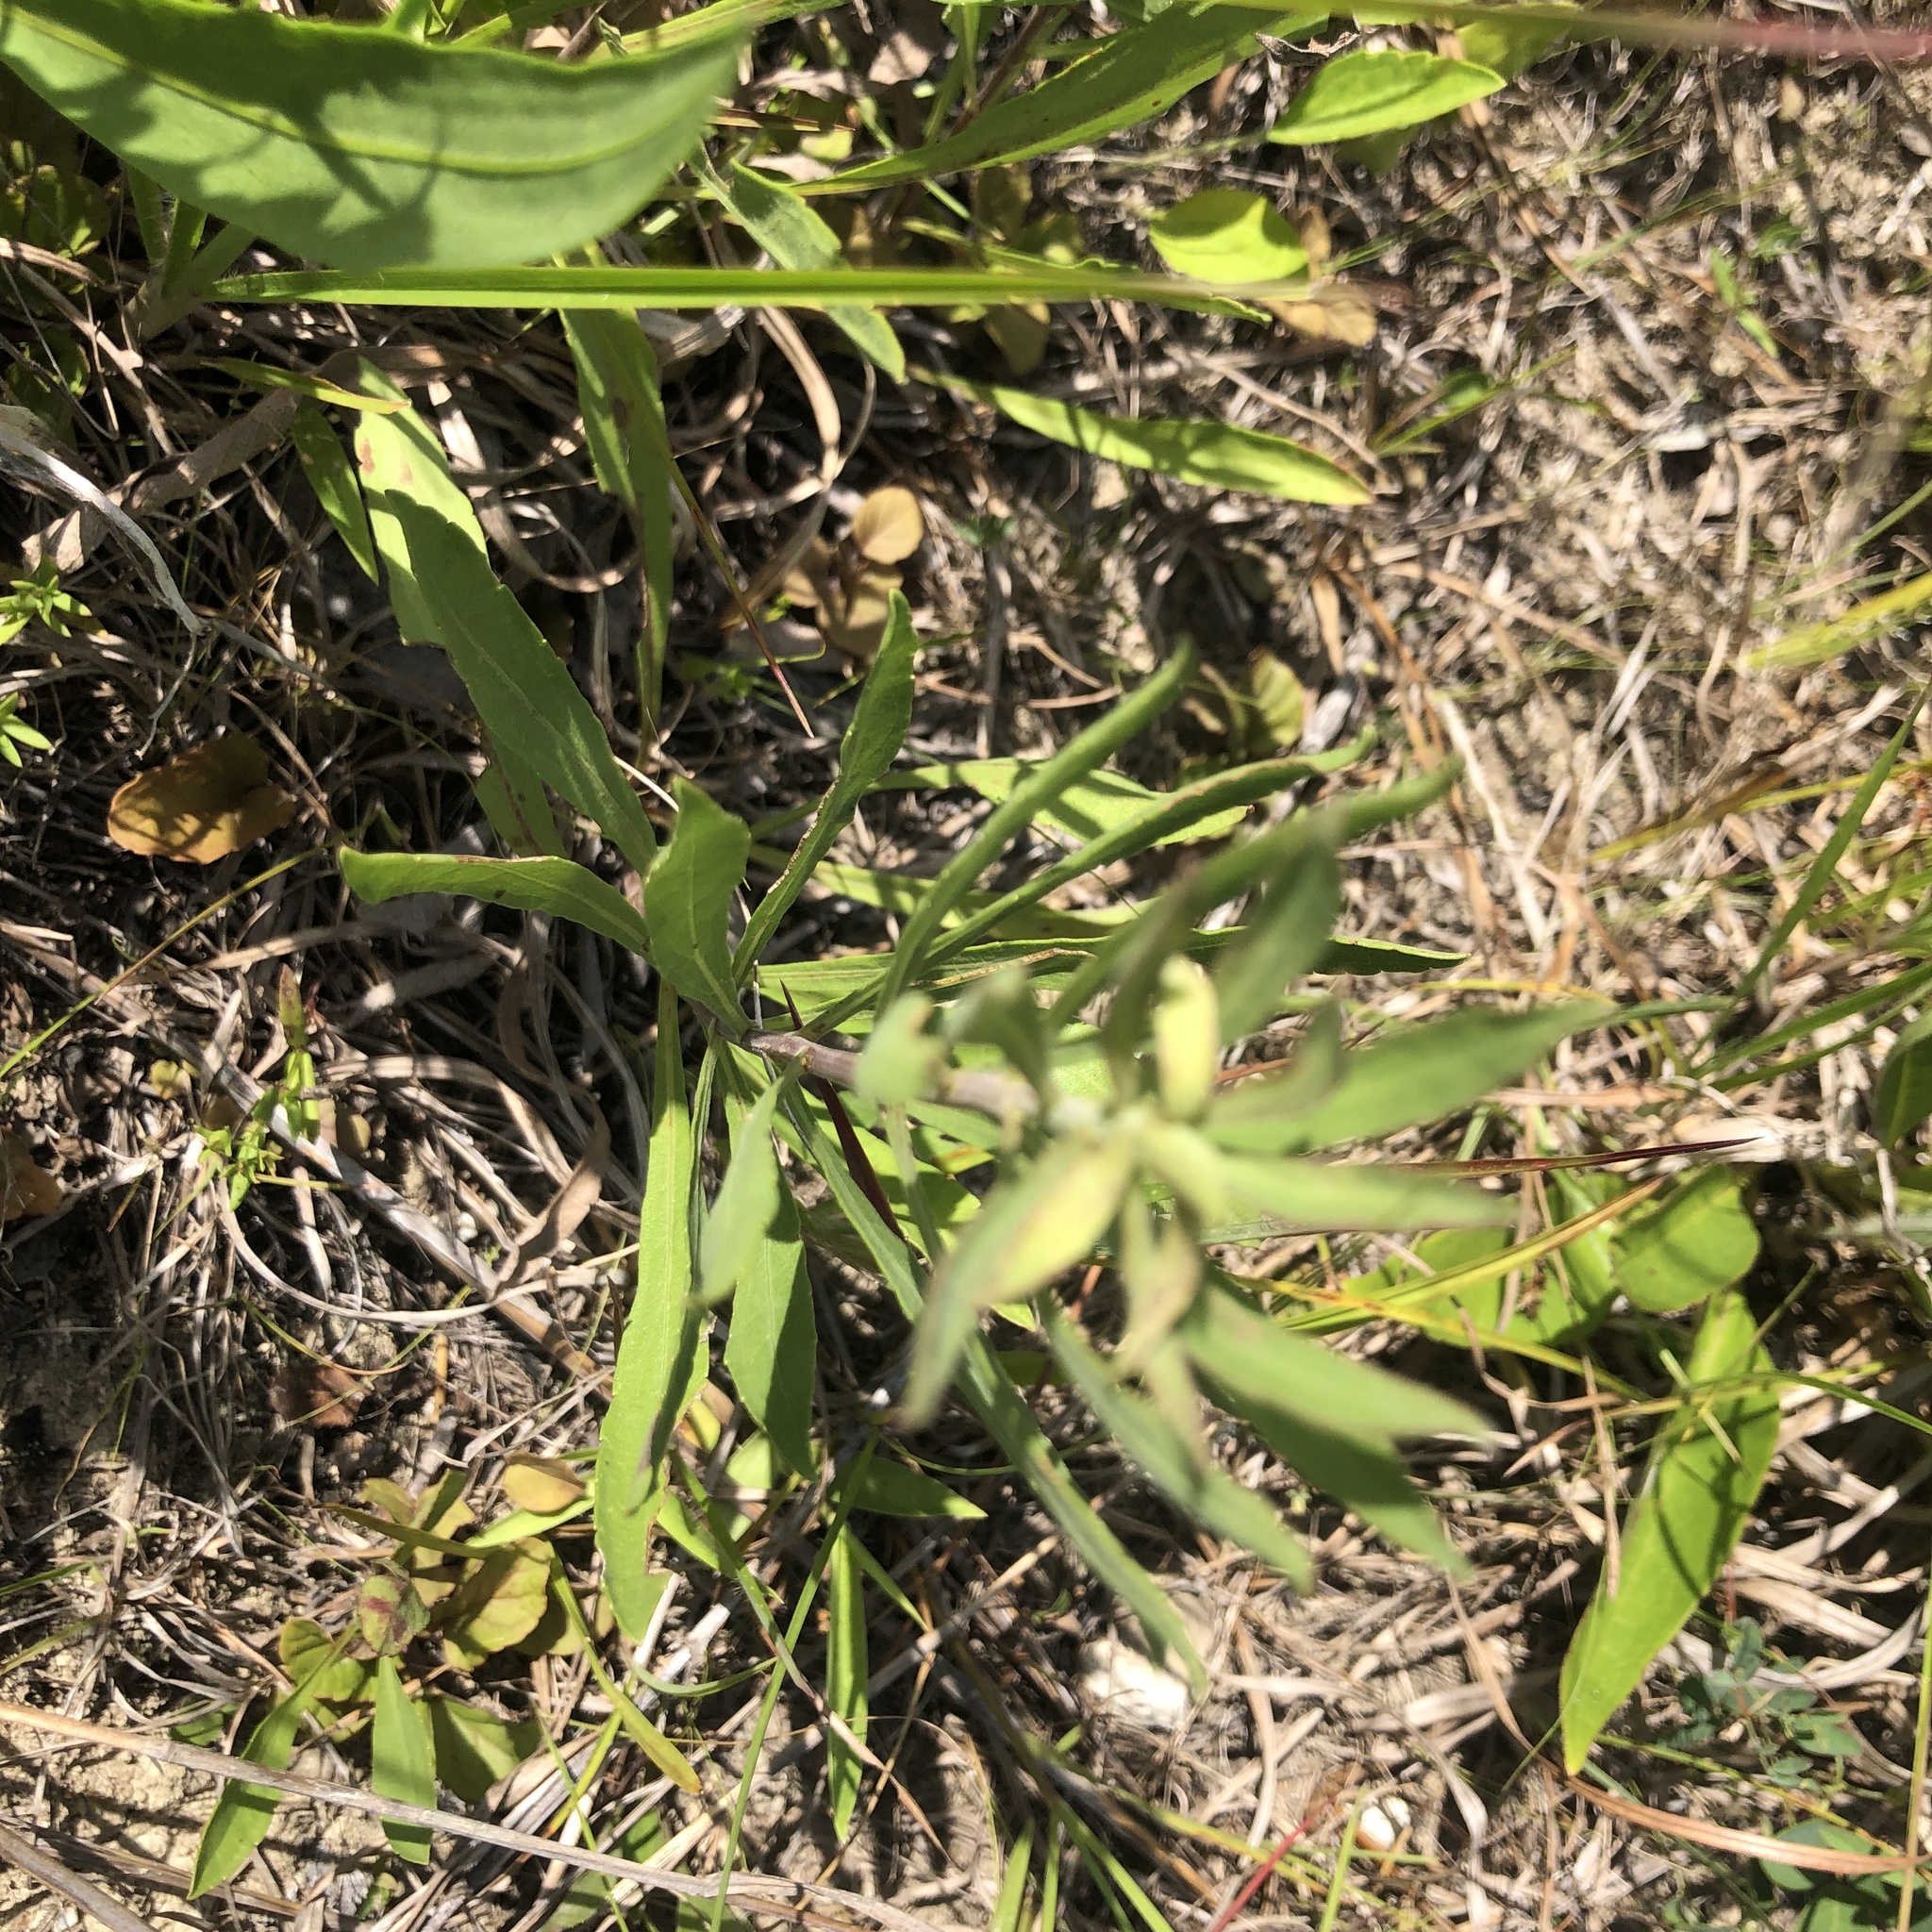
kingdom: Plantae
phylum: Tracheophyta
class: Magnoliopsida
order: Asterales
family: Asteraceae
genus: Solidago
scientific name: Solidago nemoralis
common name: Grey goldenrod
